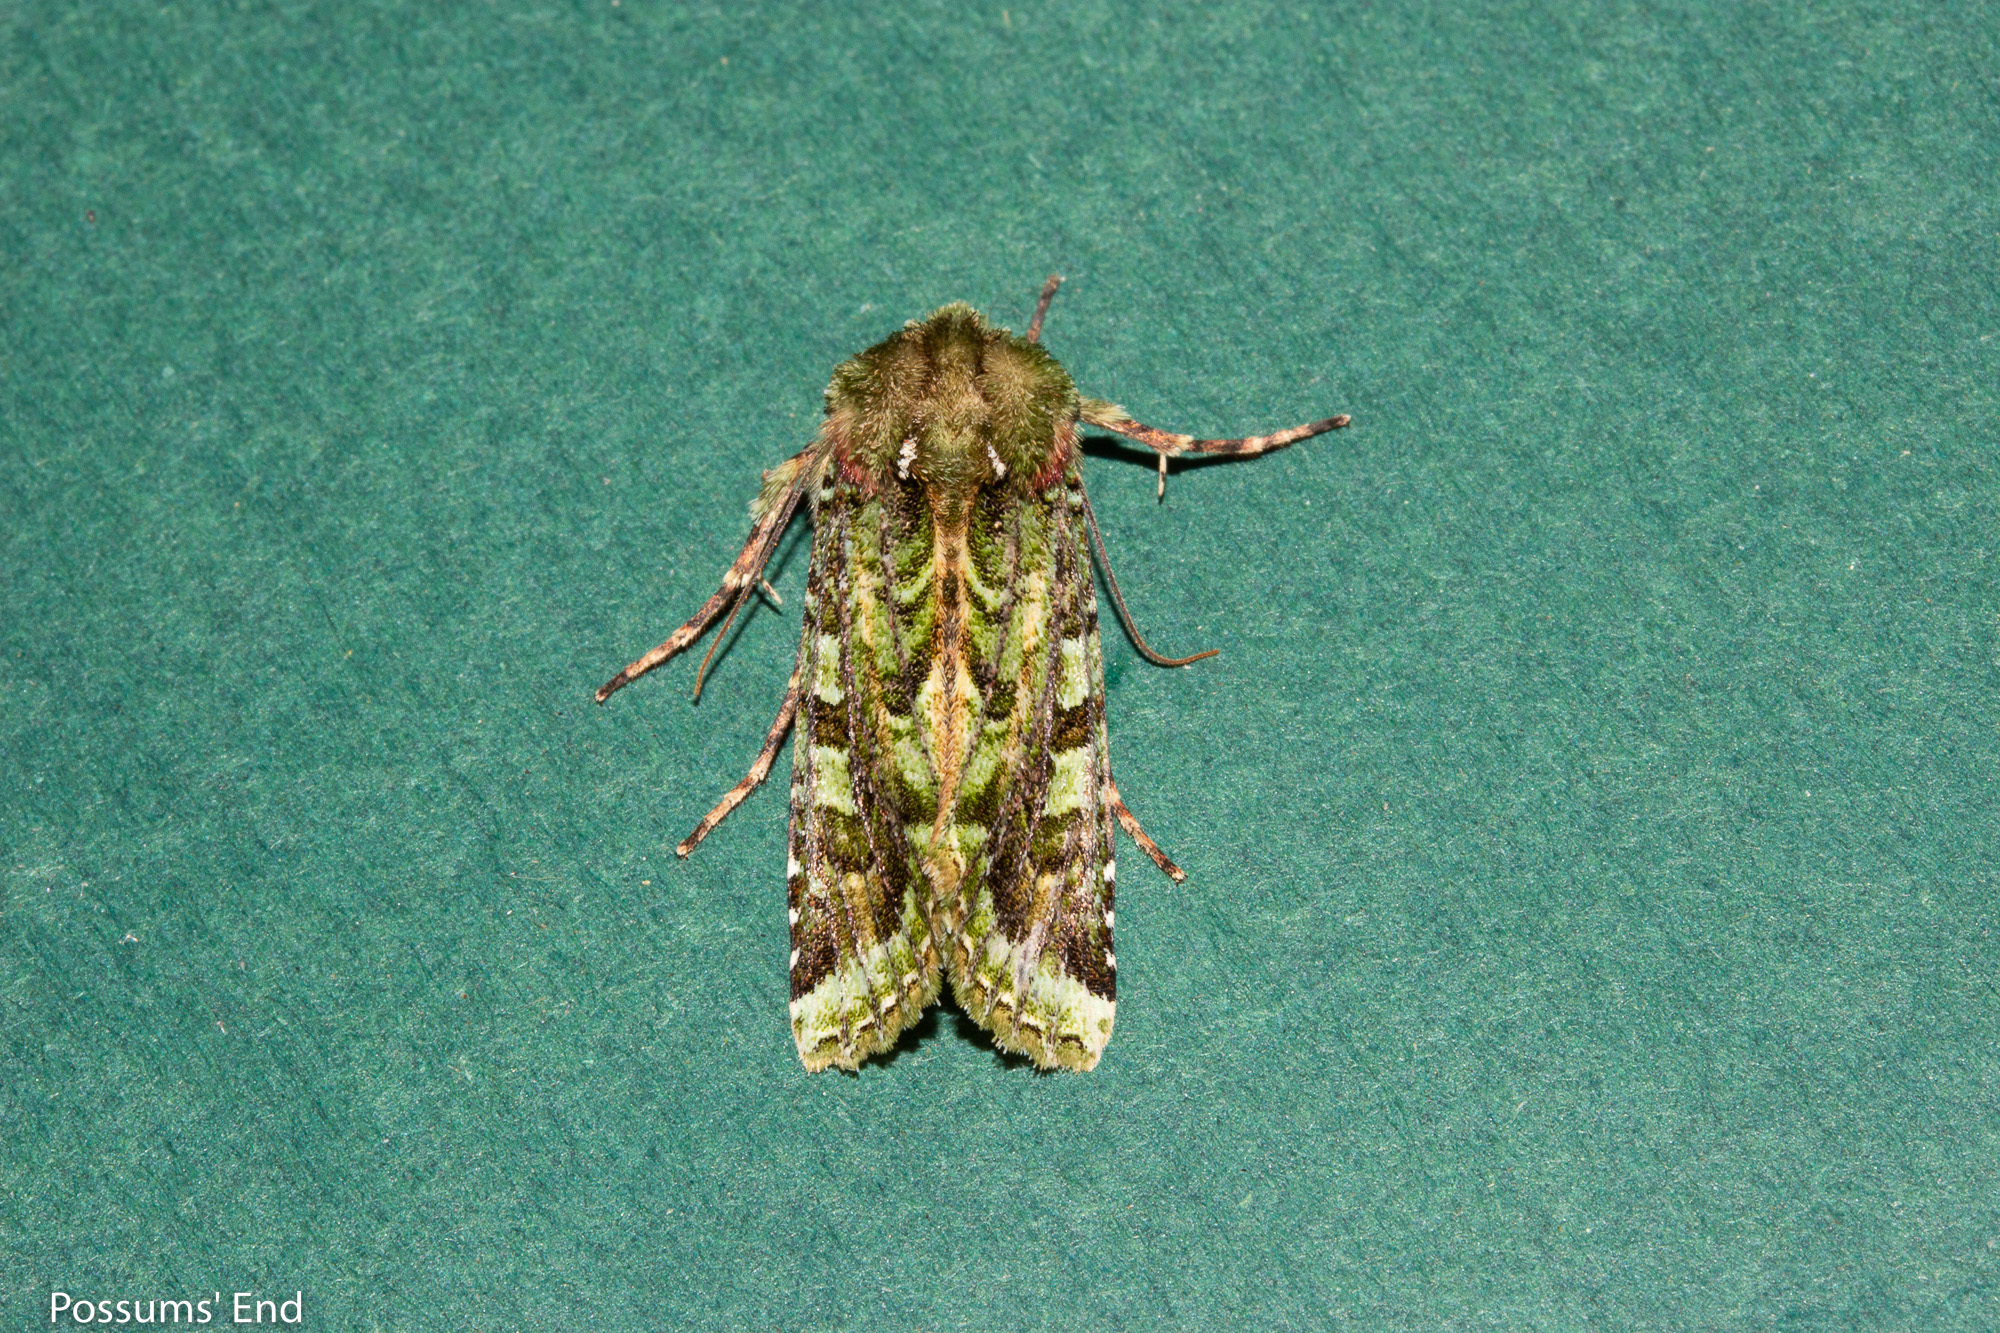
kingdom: Animalia
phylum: Arthropoda
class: Insecta
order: Lepidoptera
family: Noctuidae
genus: Feredayia
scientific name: Feredayia grammosa
